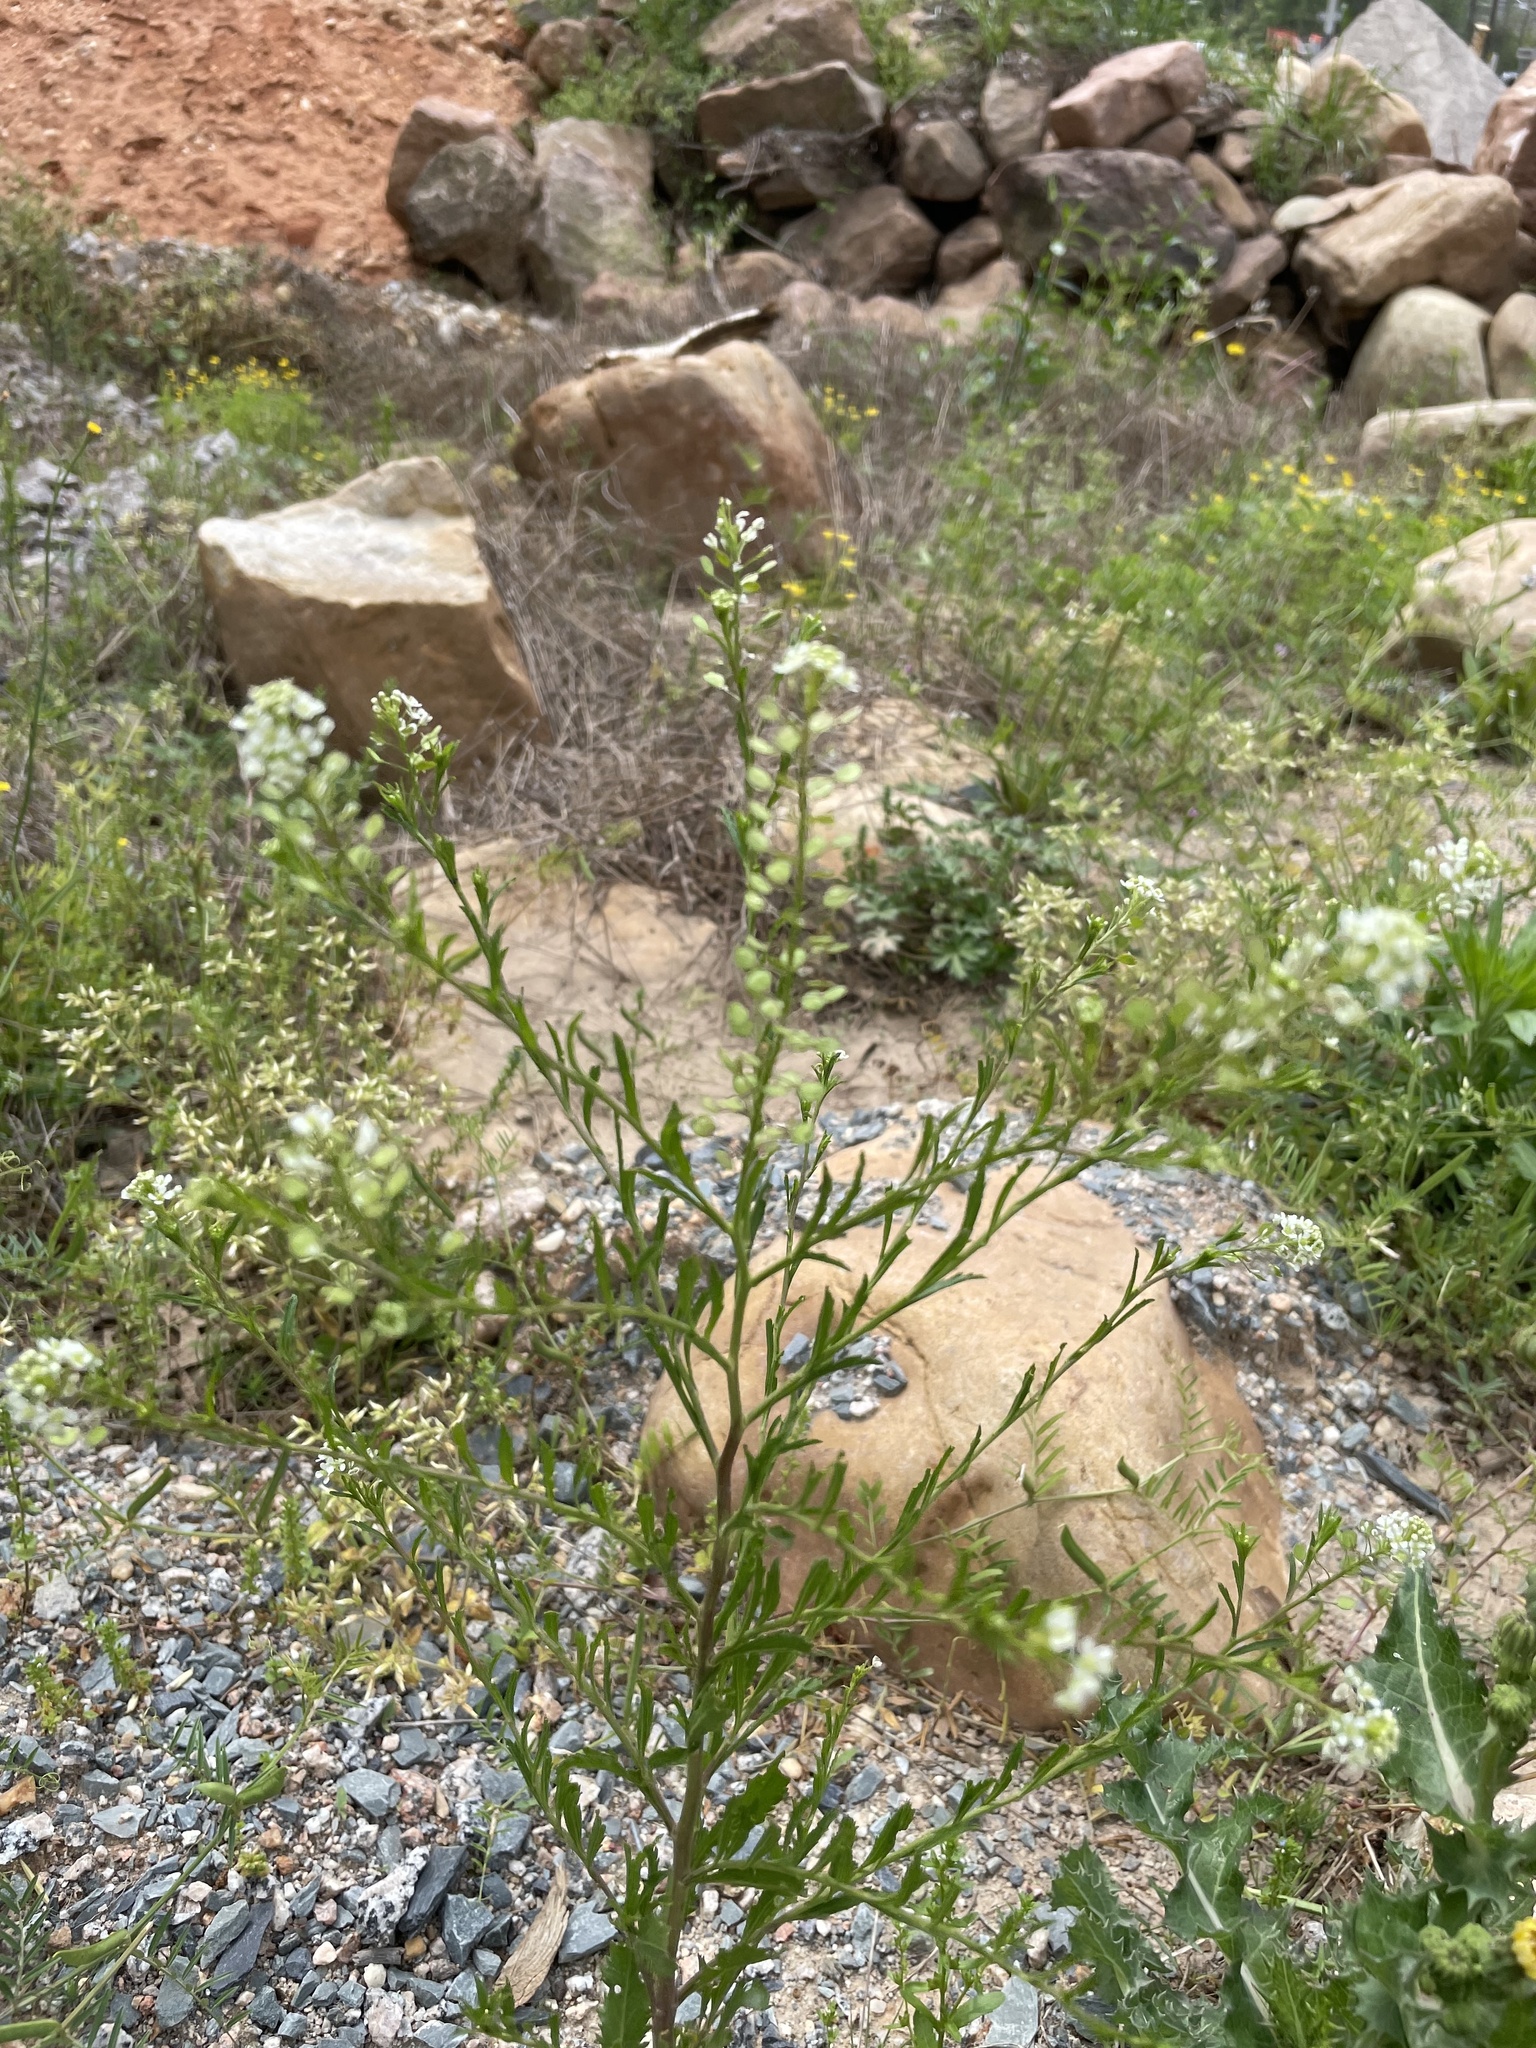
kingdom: Plantae
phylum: Tracheophyta
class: Magnoliopsida
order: Brassicales
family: Brassicaceae
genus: Lepidium
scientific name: Lepidium virginicum
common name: Least pepperwort
